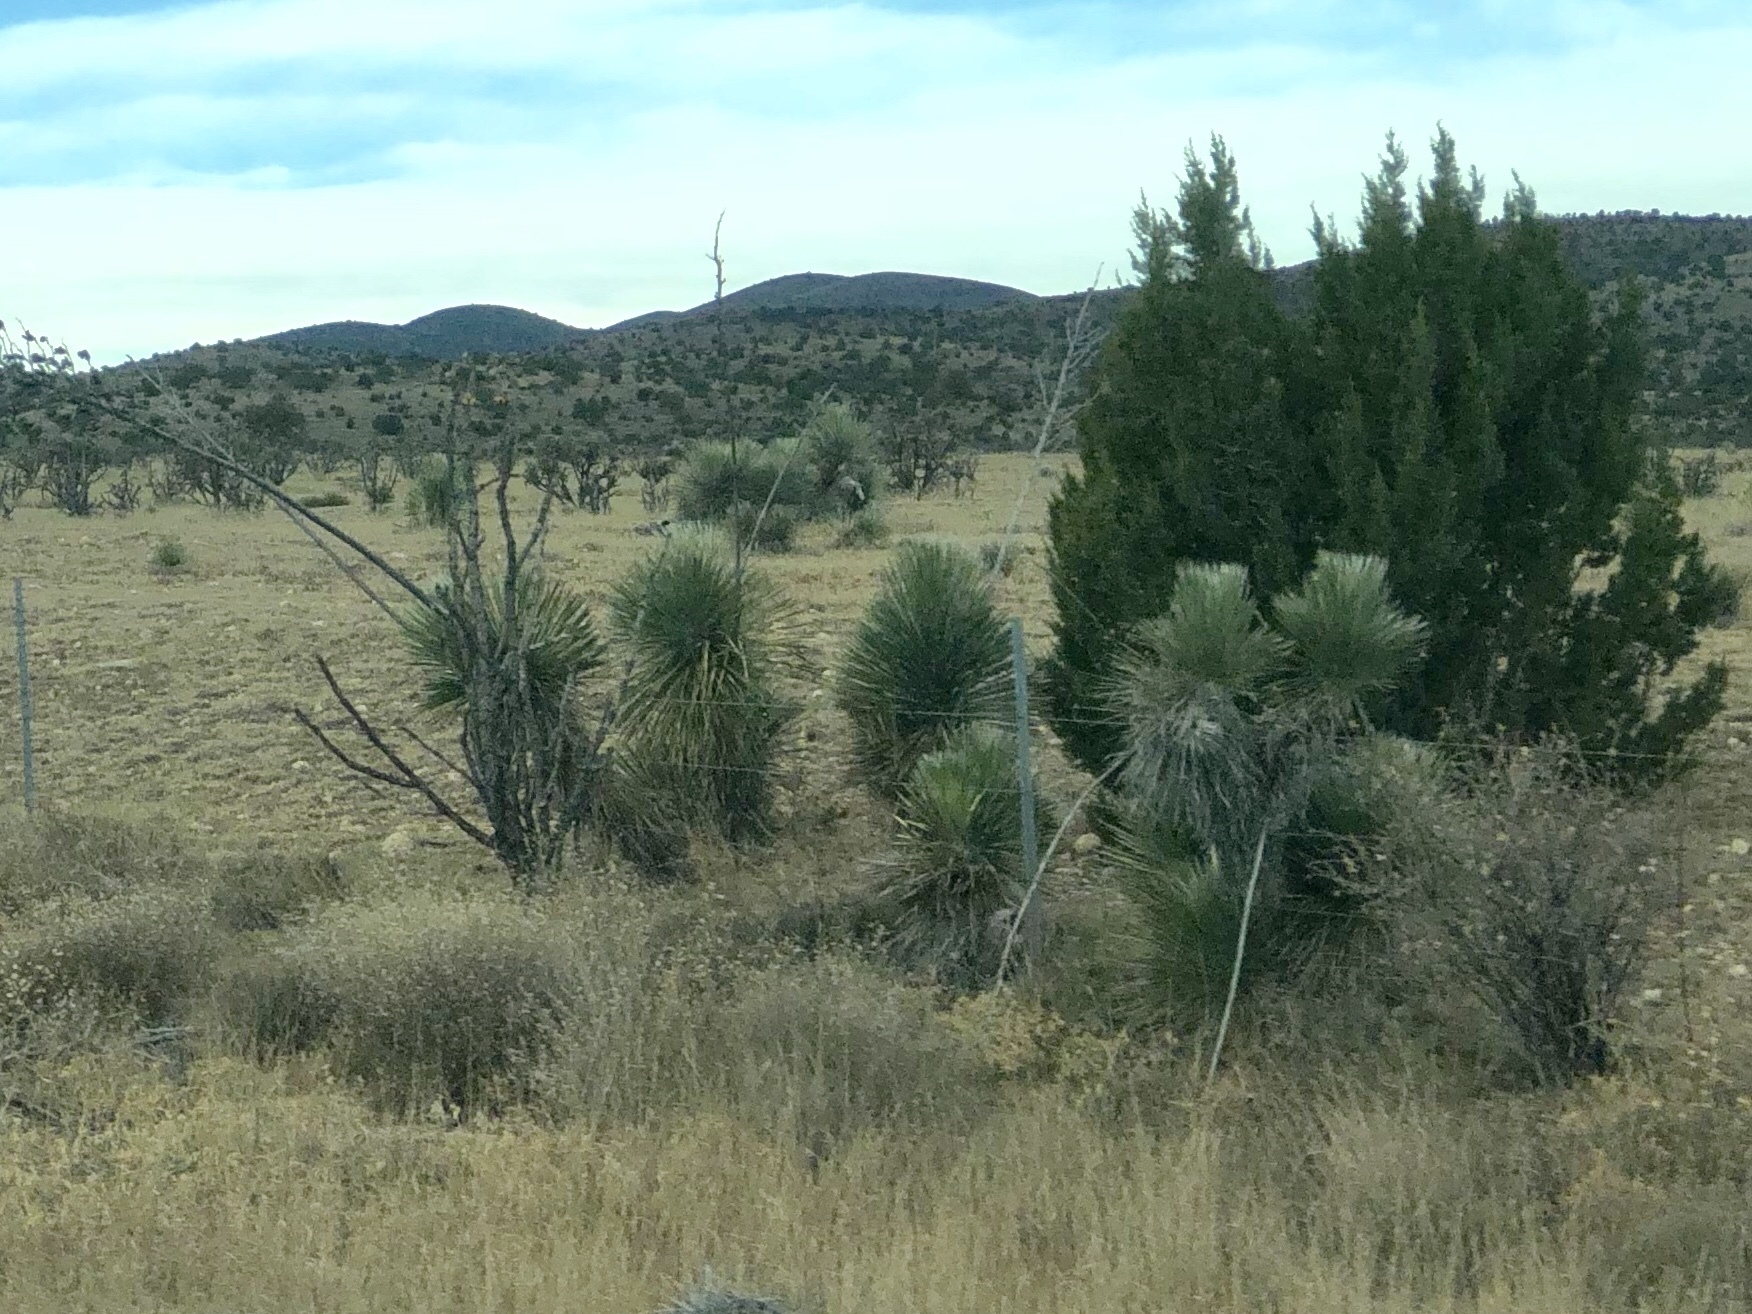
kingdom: Plantae
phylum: Tracheophyta
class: Liliopsida
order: Asparagales
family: Asparagaceae
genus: Yucca
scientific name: Yucca elata
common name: Palmella
